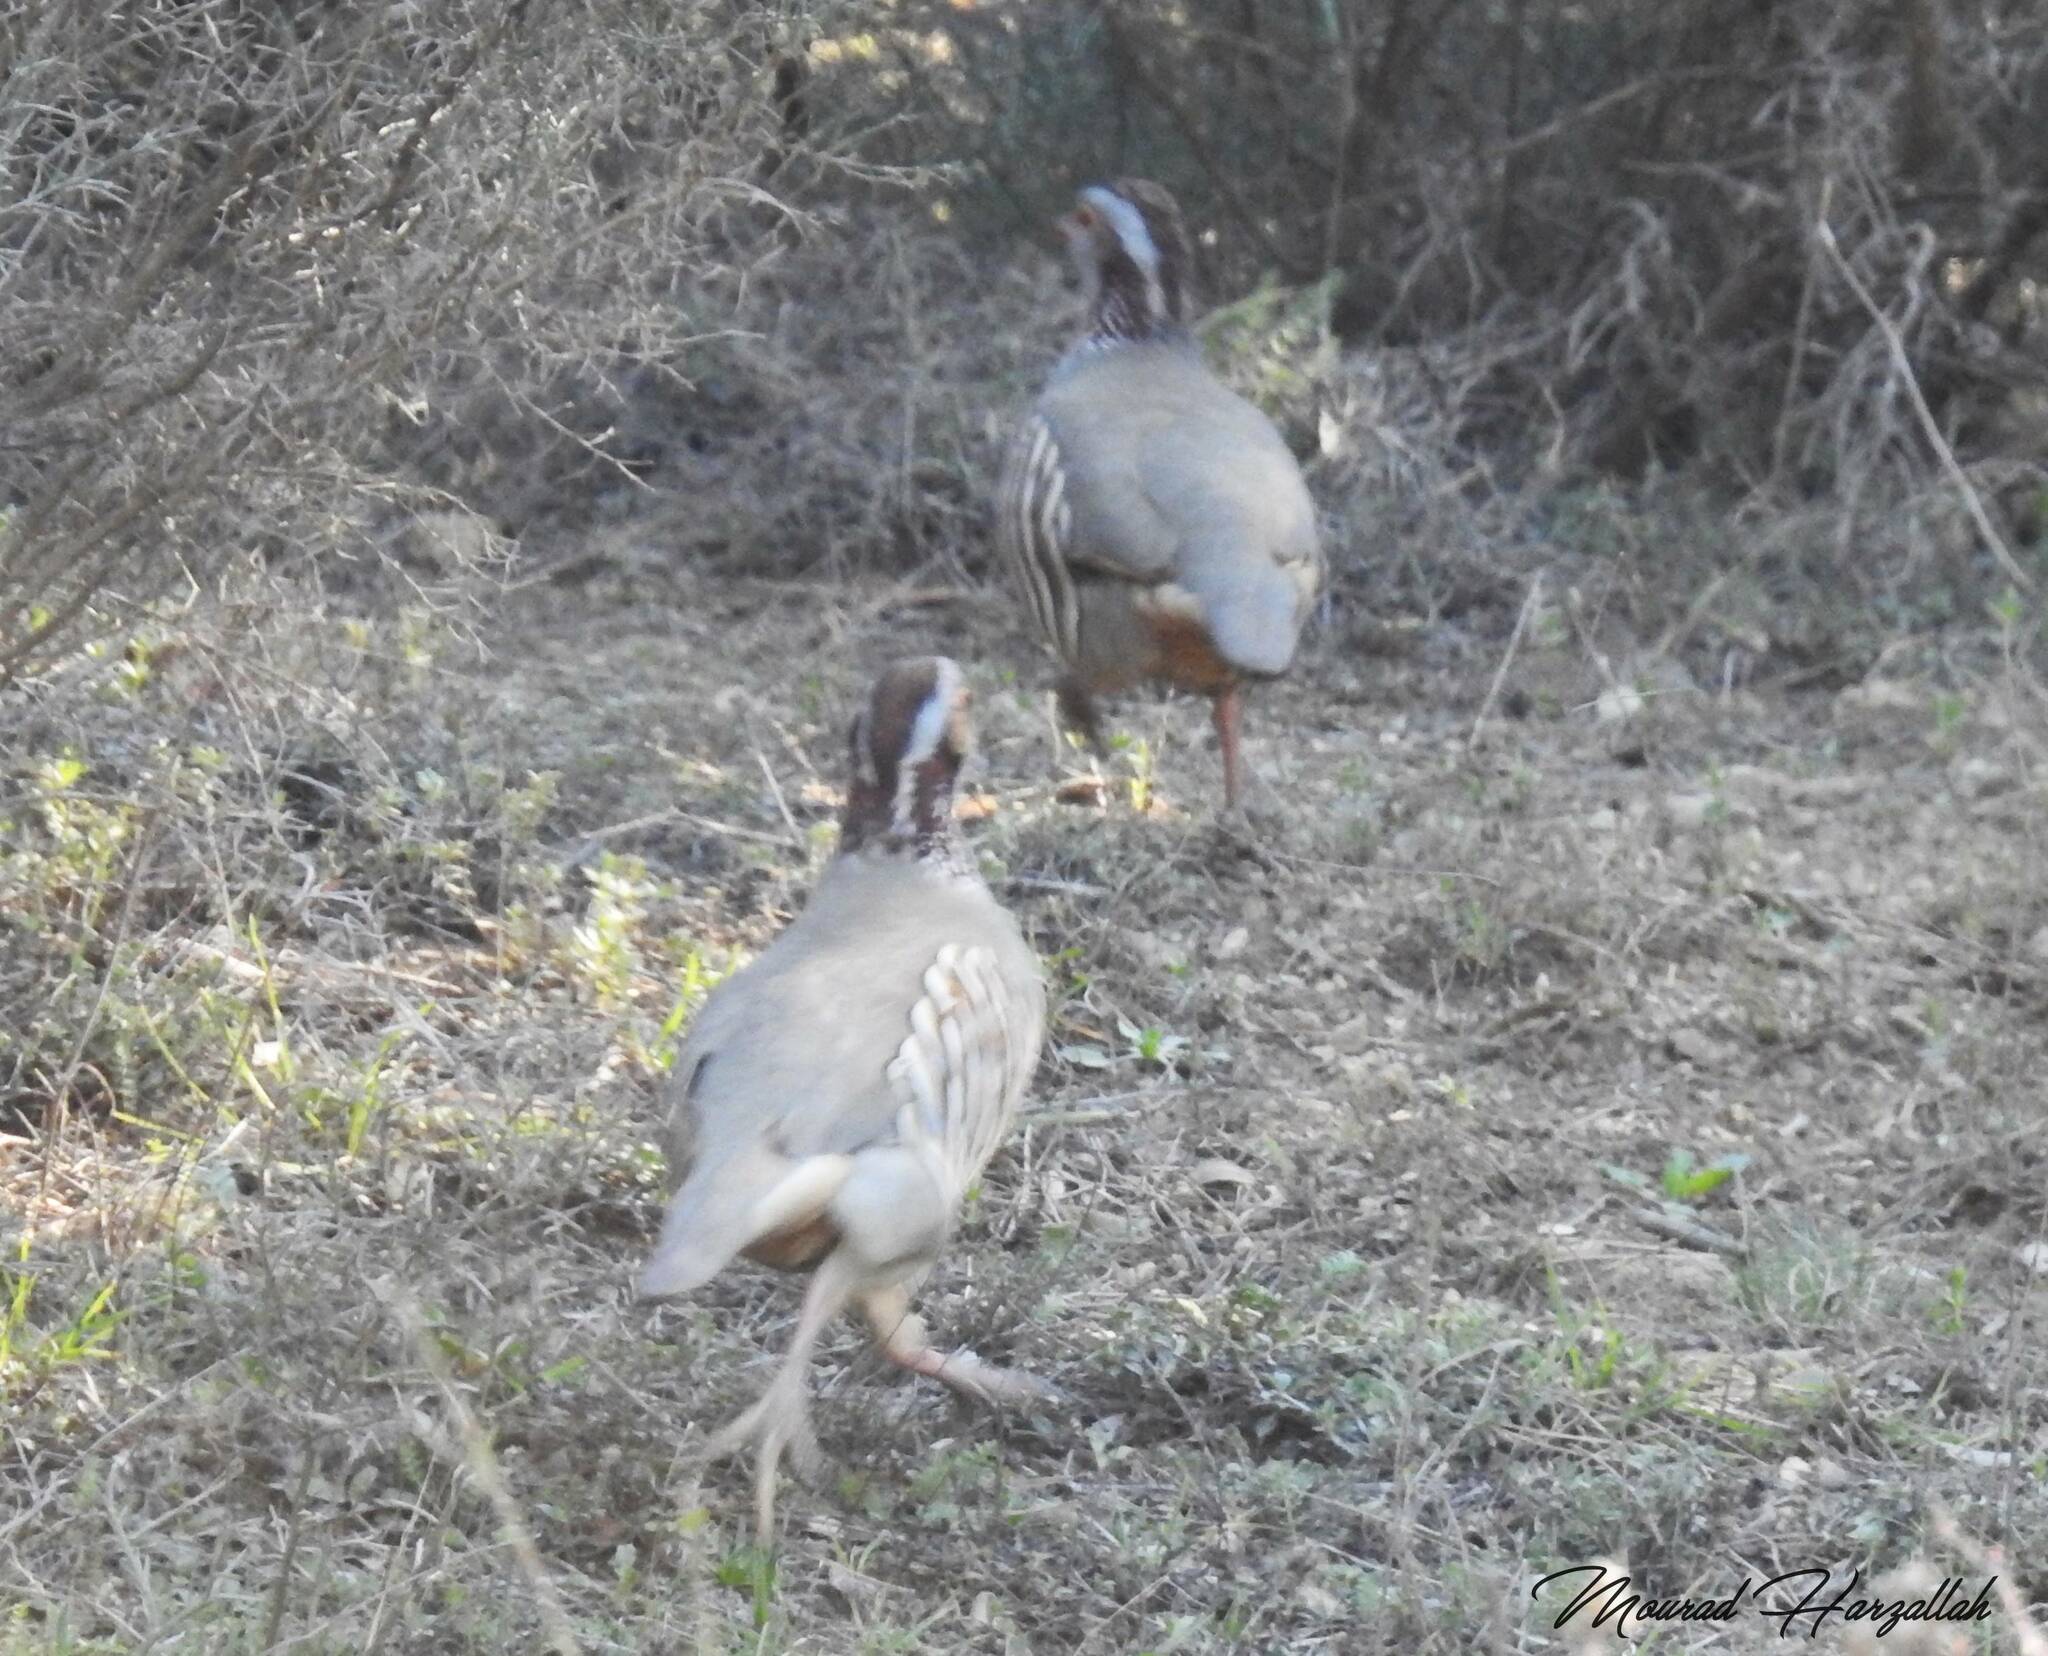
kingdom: Animalia
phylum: Chordata
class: Aves
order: Galliformes
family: Phasianidae
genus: Alectoris
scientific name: Alectoris barbara
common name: Barbary partridge
